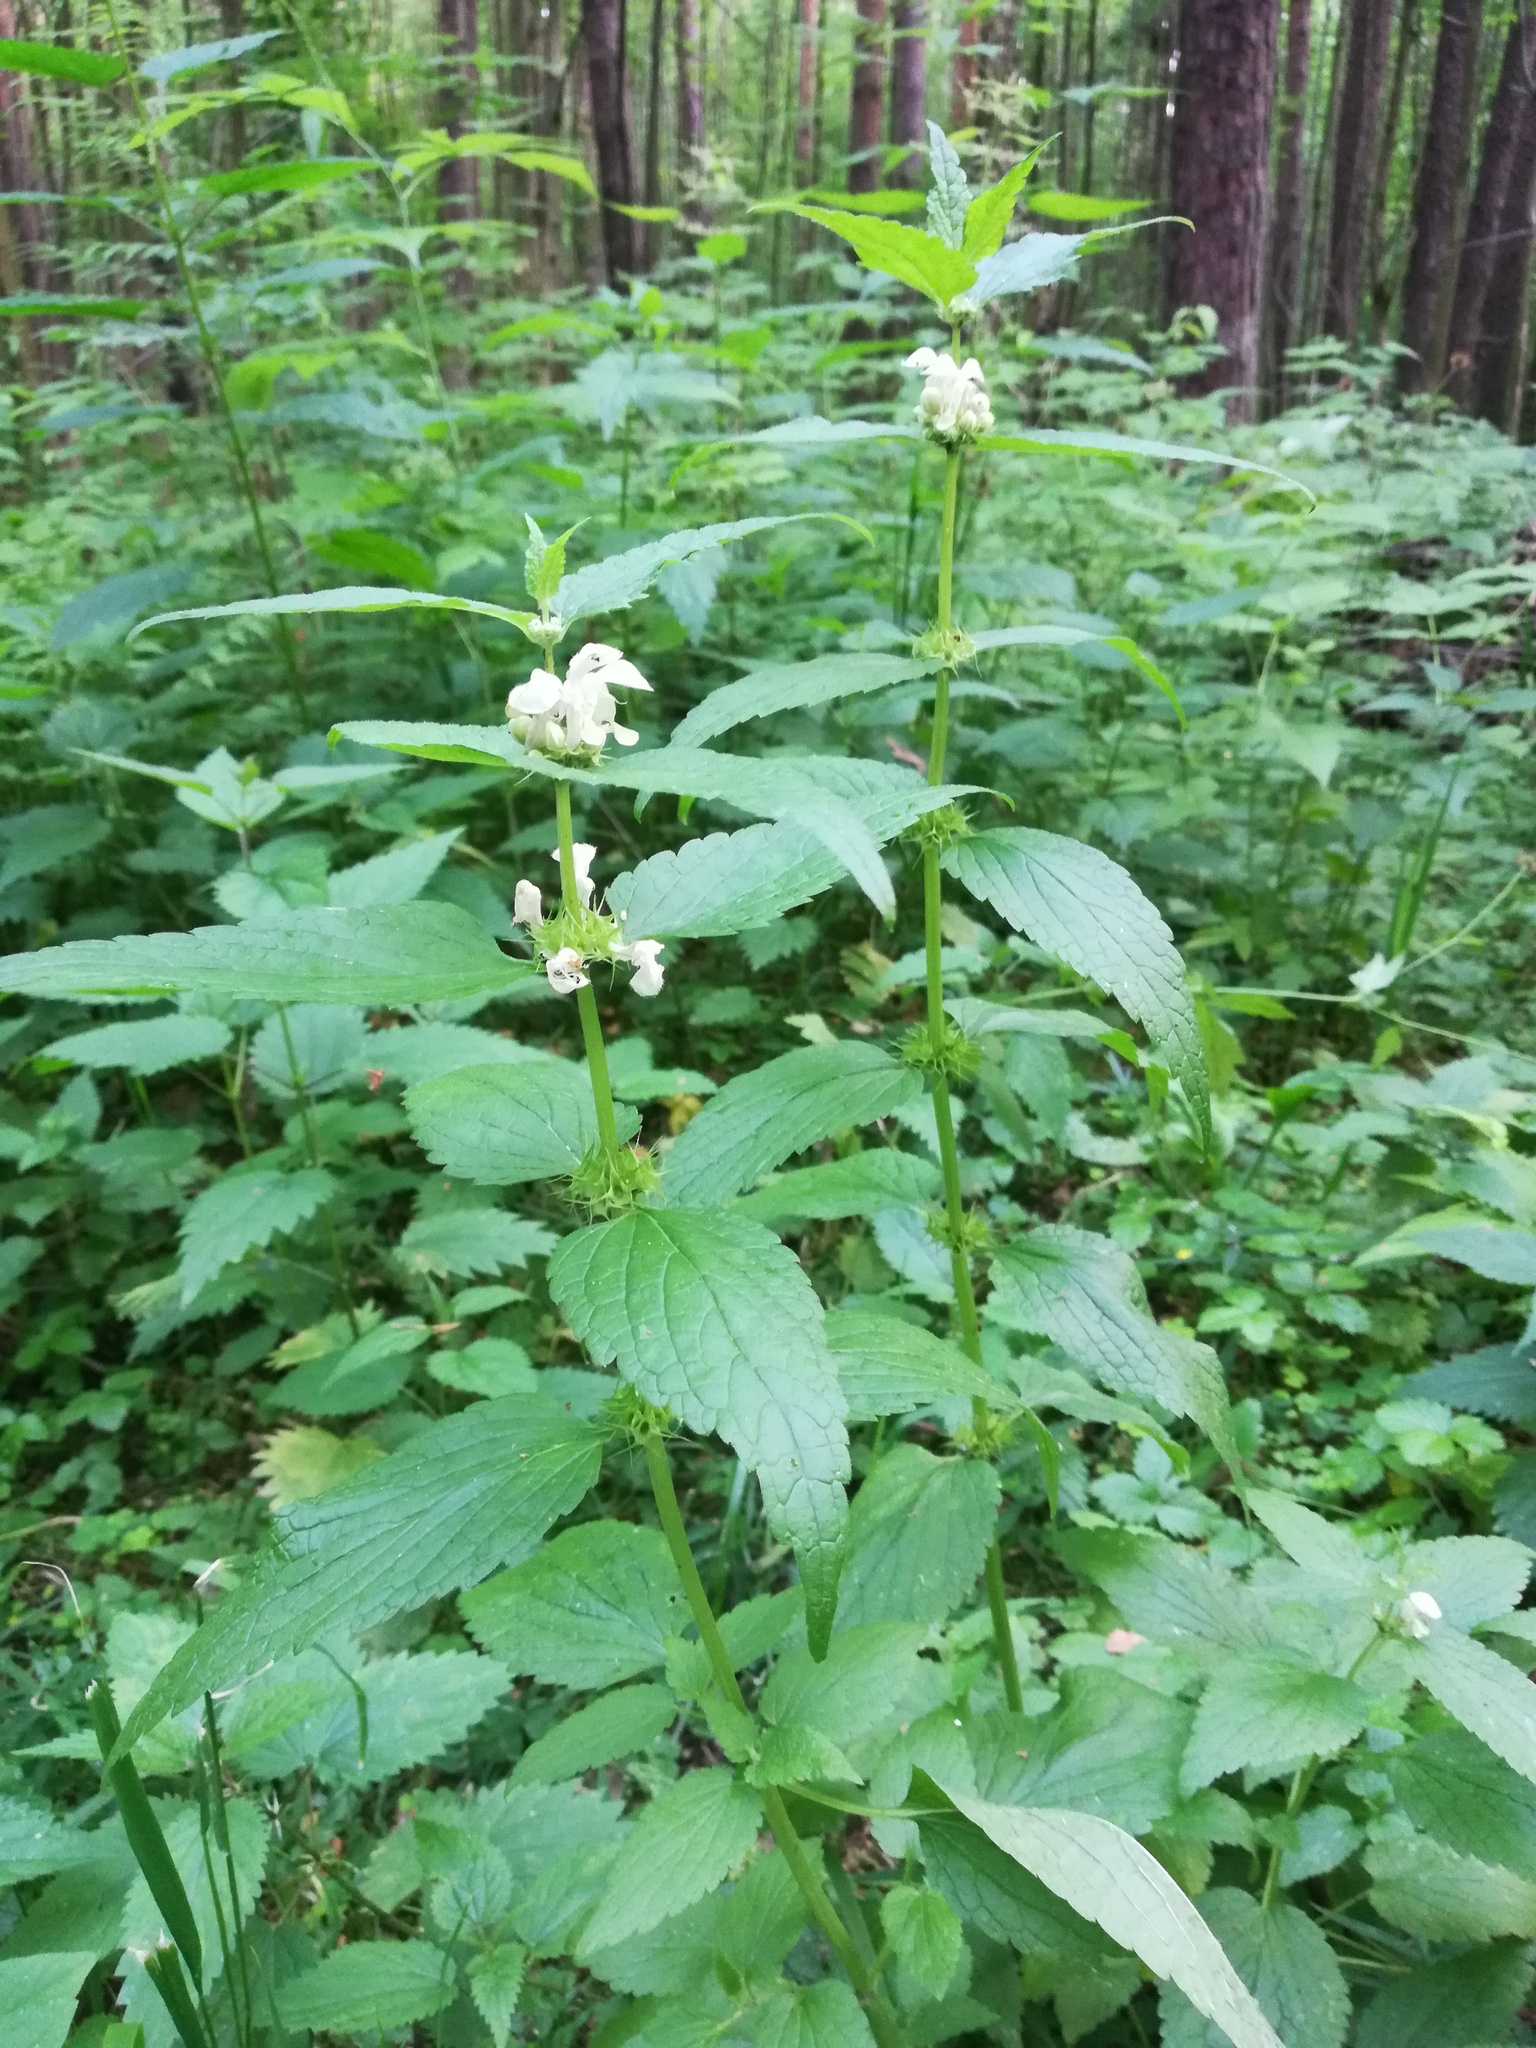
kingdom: Plantae
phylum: Tracheophyta
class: Magnoliopsida
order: Lamiales
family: Lamiaceae
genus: Lamium
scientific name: Lamium album
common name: White dead-nettle
